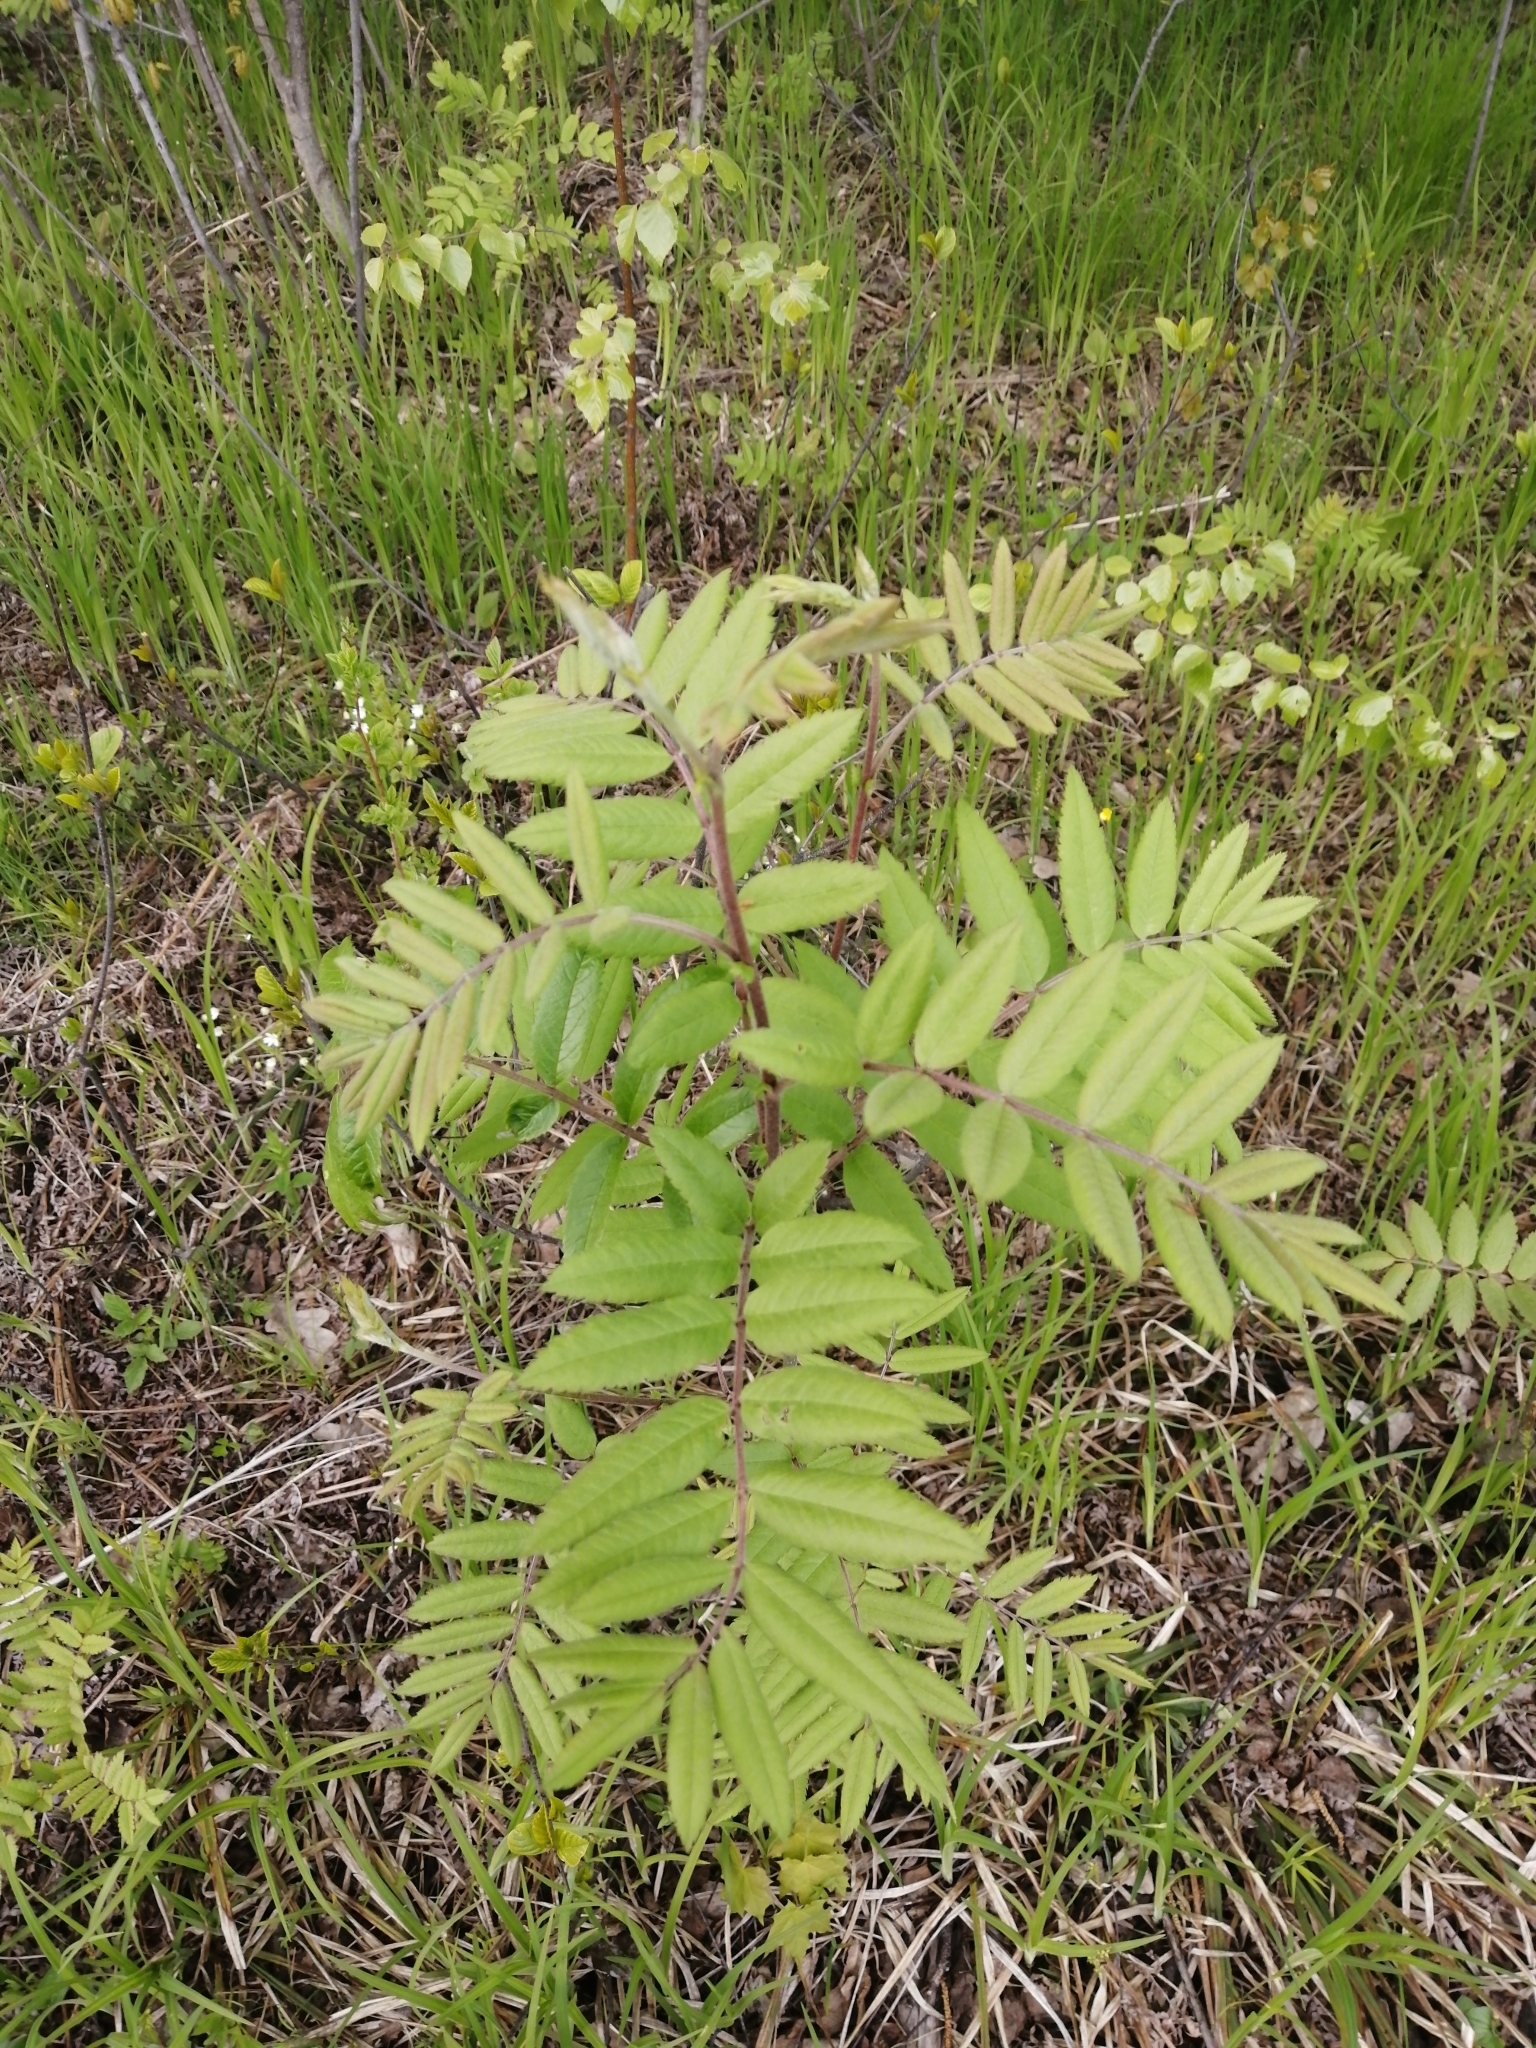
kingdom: Plantae
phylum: Tracheophyta
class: Magnoliopsida
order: Rosales
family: Rosaceae
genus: Sorbus
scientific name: Sorbus aucuparia
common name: Rowan
